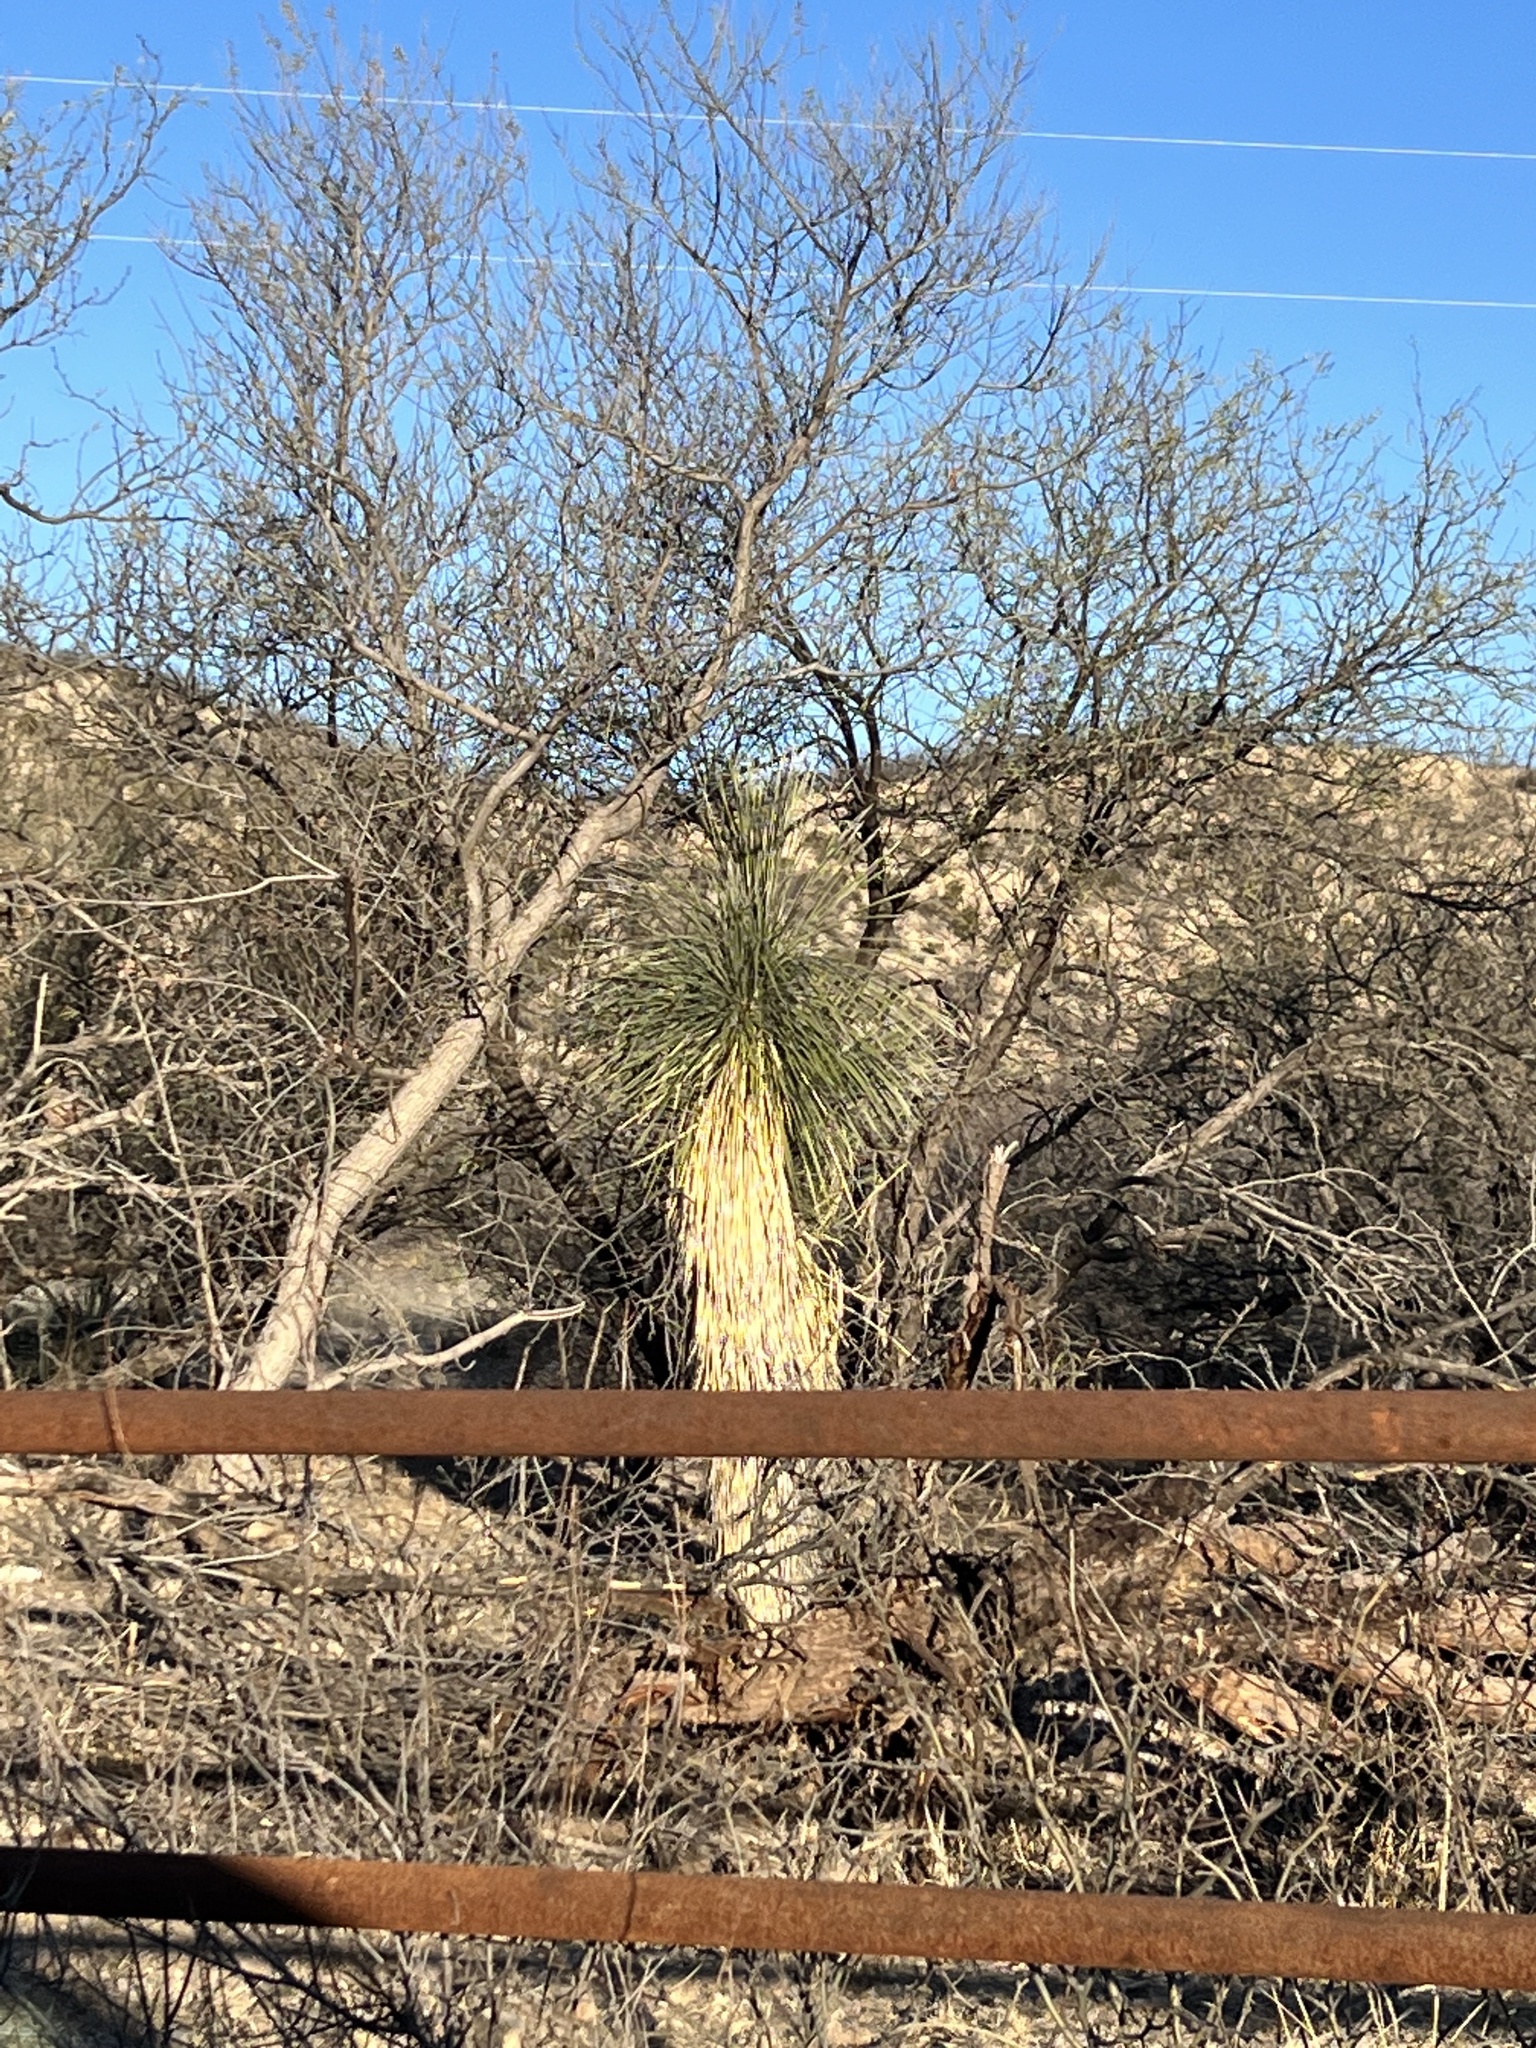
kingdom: Plantae
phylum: Tracheophyta
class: Liliopsida
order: Asparagales
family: Asparagaceae
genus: Yucca
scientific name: Yucca elata
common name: Palmella
